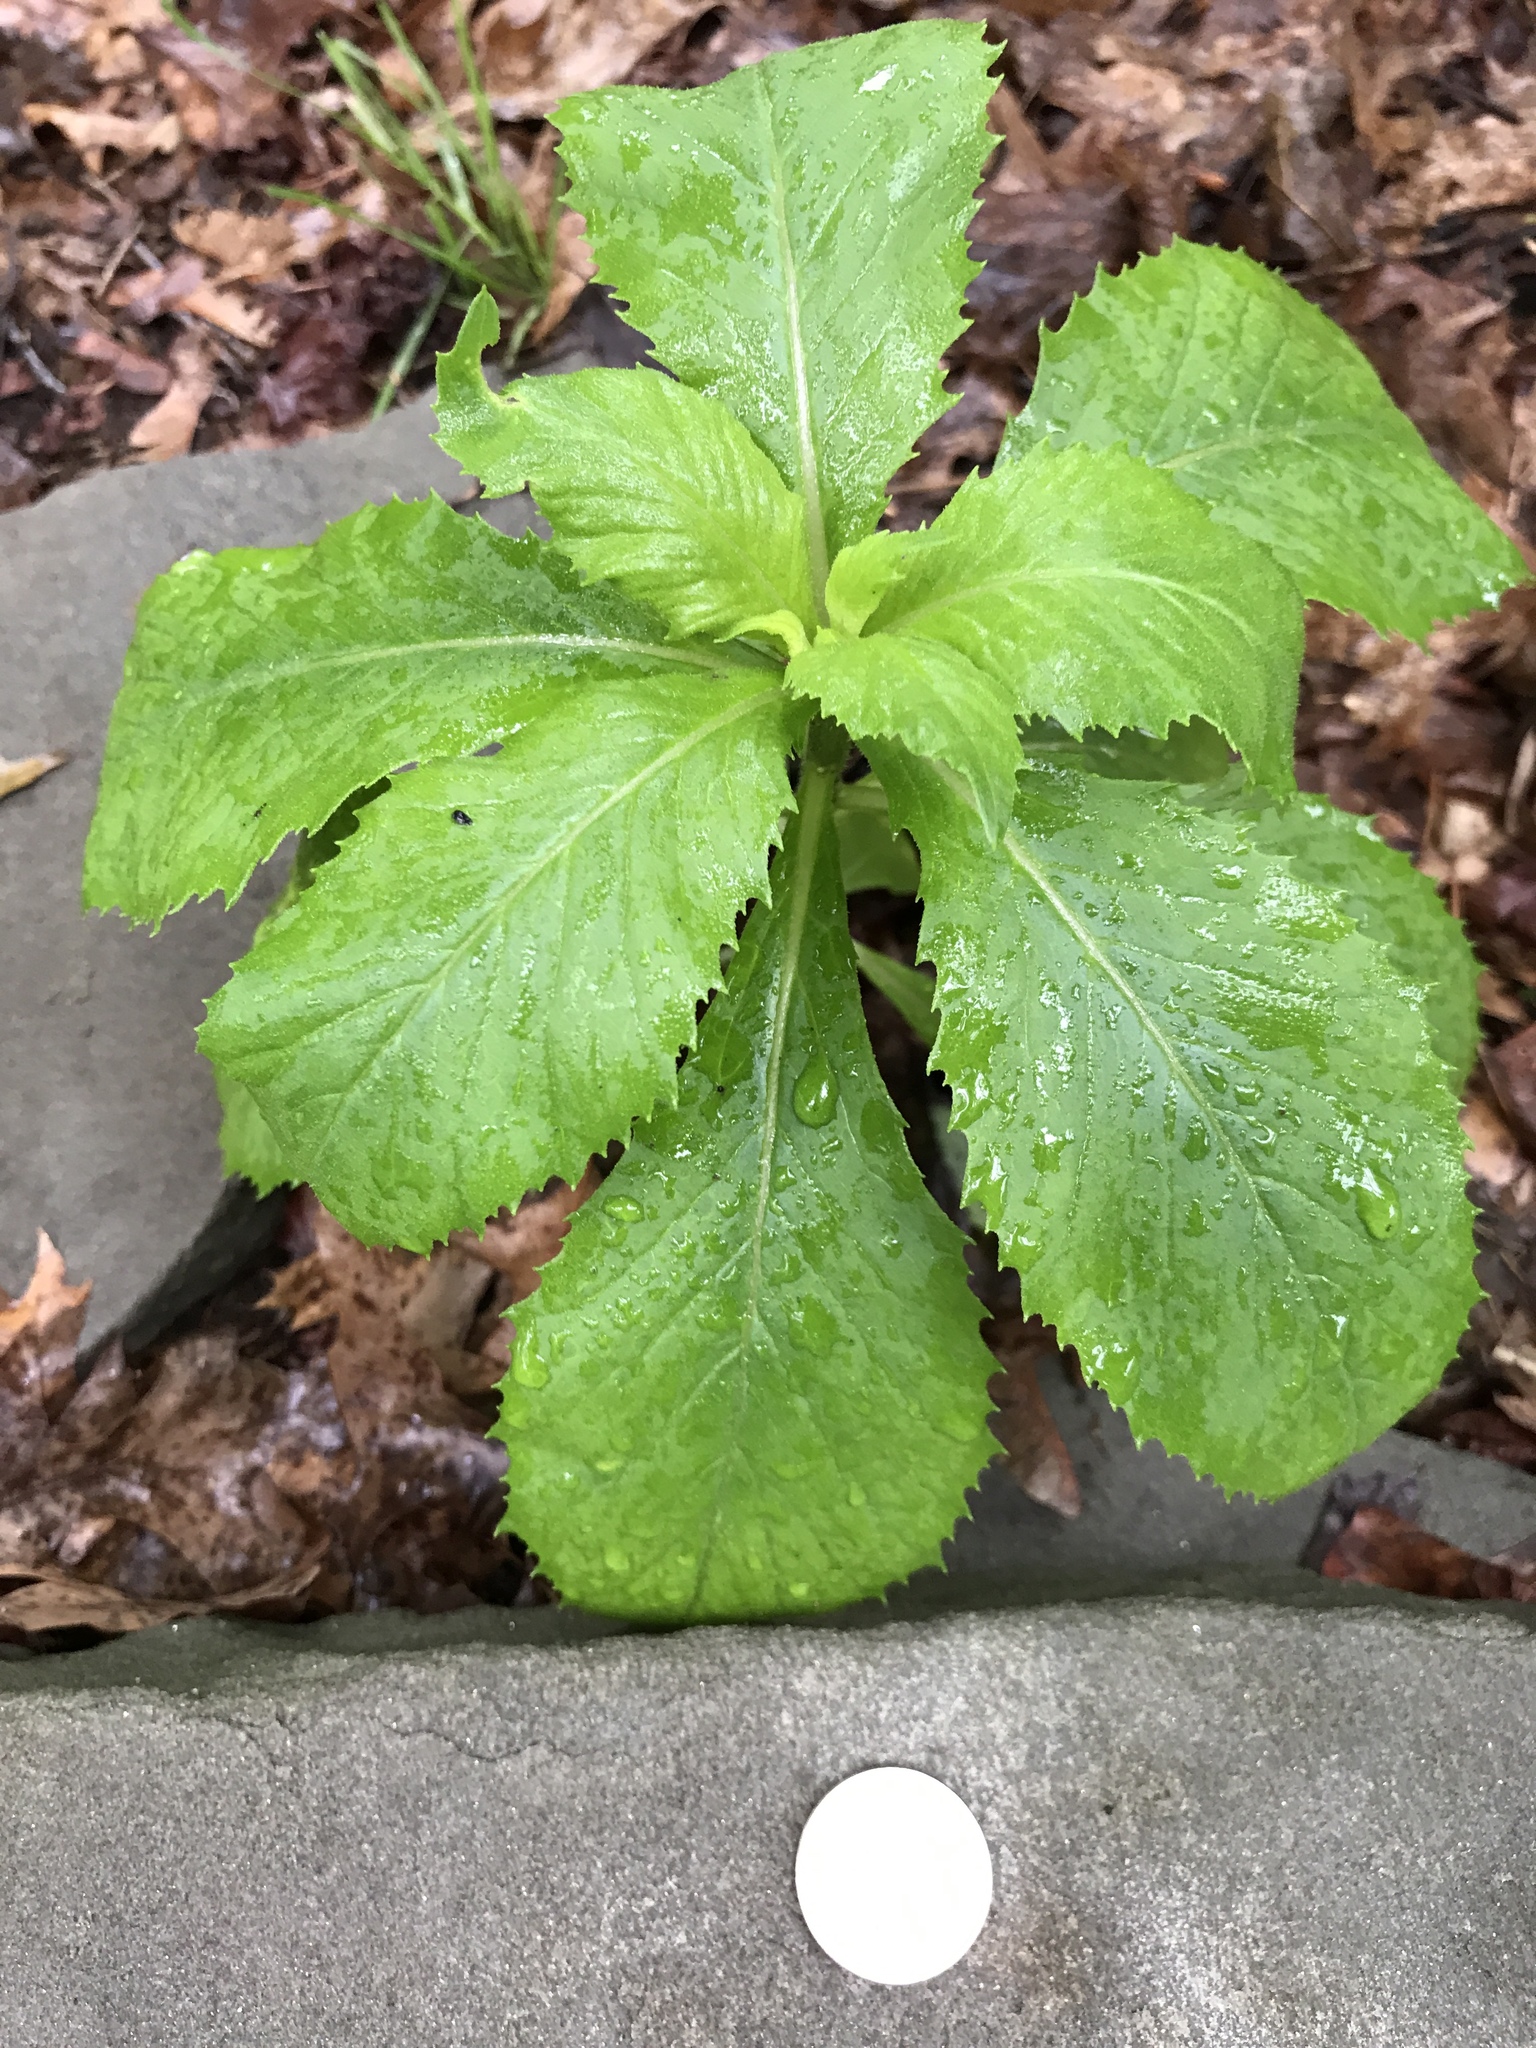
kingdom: Plantae
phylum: Tracheophyta
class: Magnoliopsida
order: Asterales
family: Asteraceae
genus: Erechtites
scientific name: Erechtites hieraciifolius
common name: American burnweed
